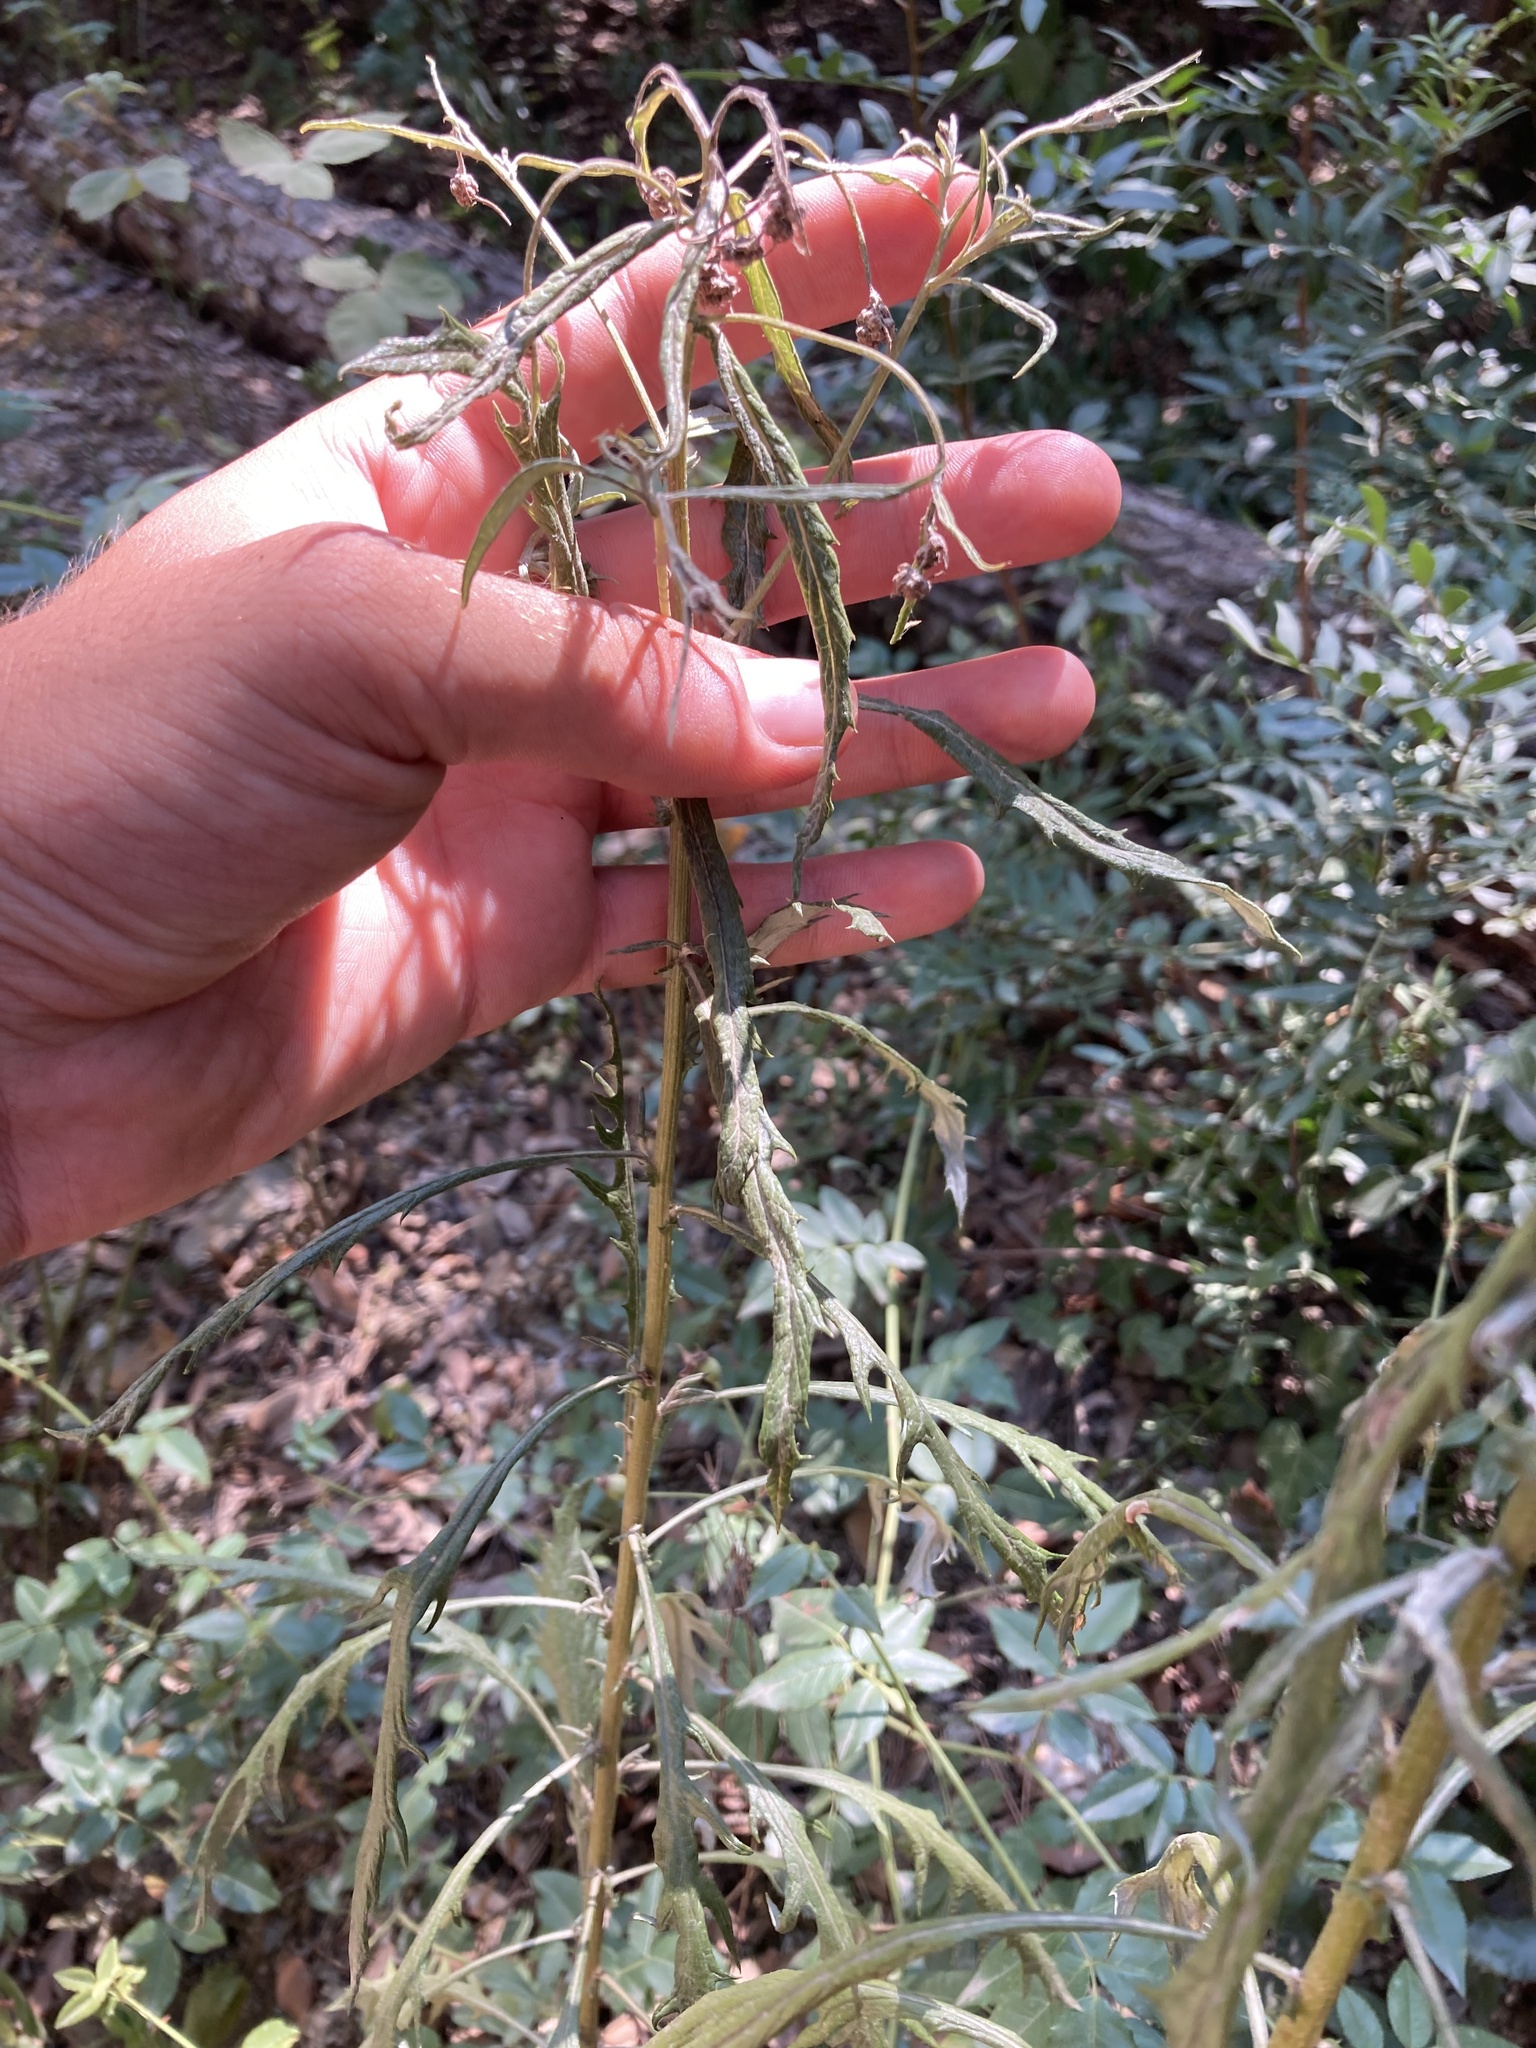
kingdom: Plantae
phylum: Tracheophyta
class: Magnoliopsida
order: Asterales
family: Asteraceae
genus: Senecio
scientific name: Senecio pterophorus
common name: Shoddy ragwort
